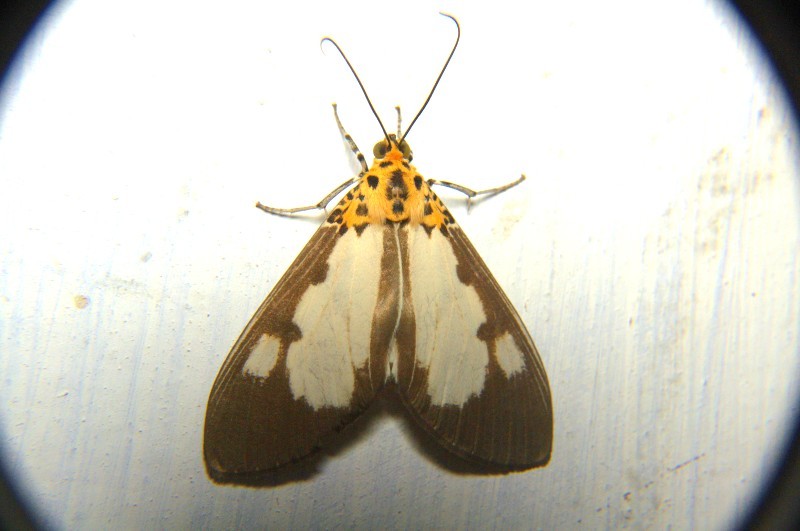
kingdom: Animalia
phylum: Arthropoda
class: Insecta
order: Lepidoptera
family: Erebidae
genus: Asota
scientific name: Asota plana
